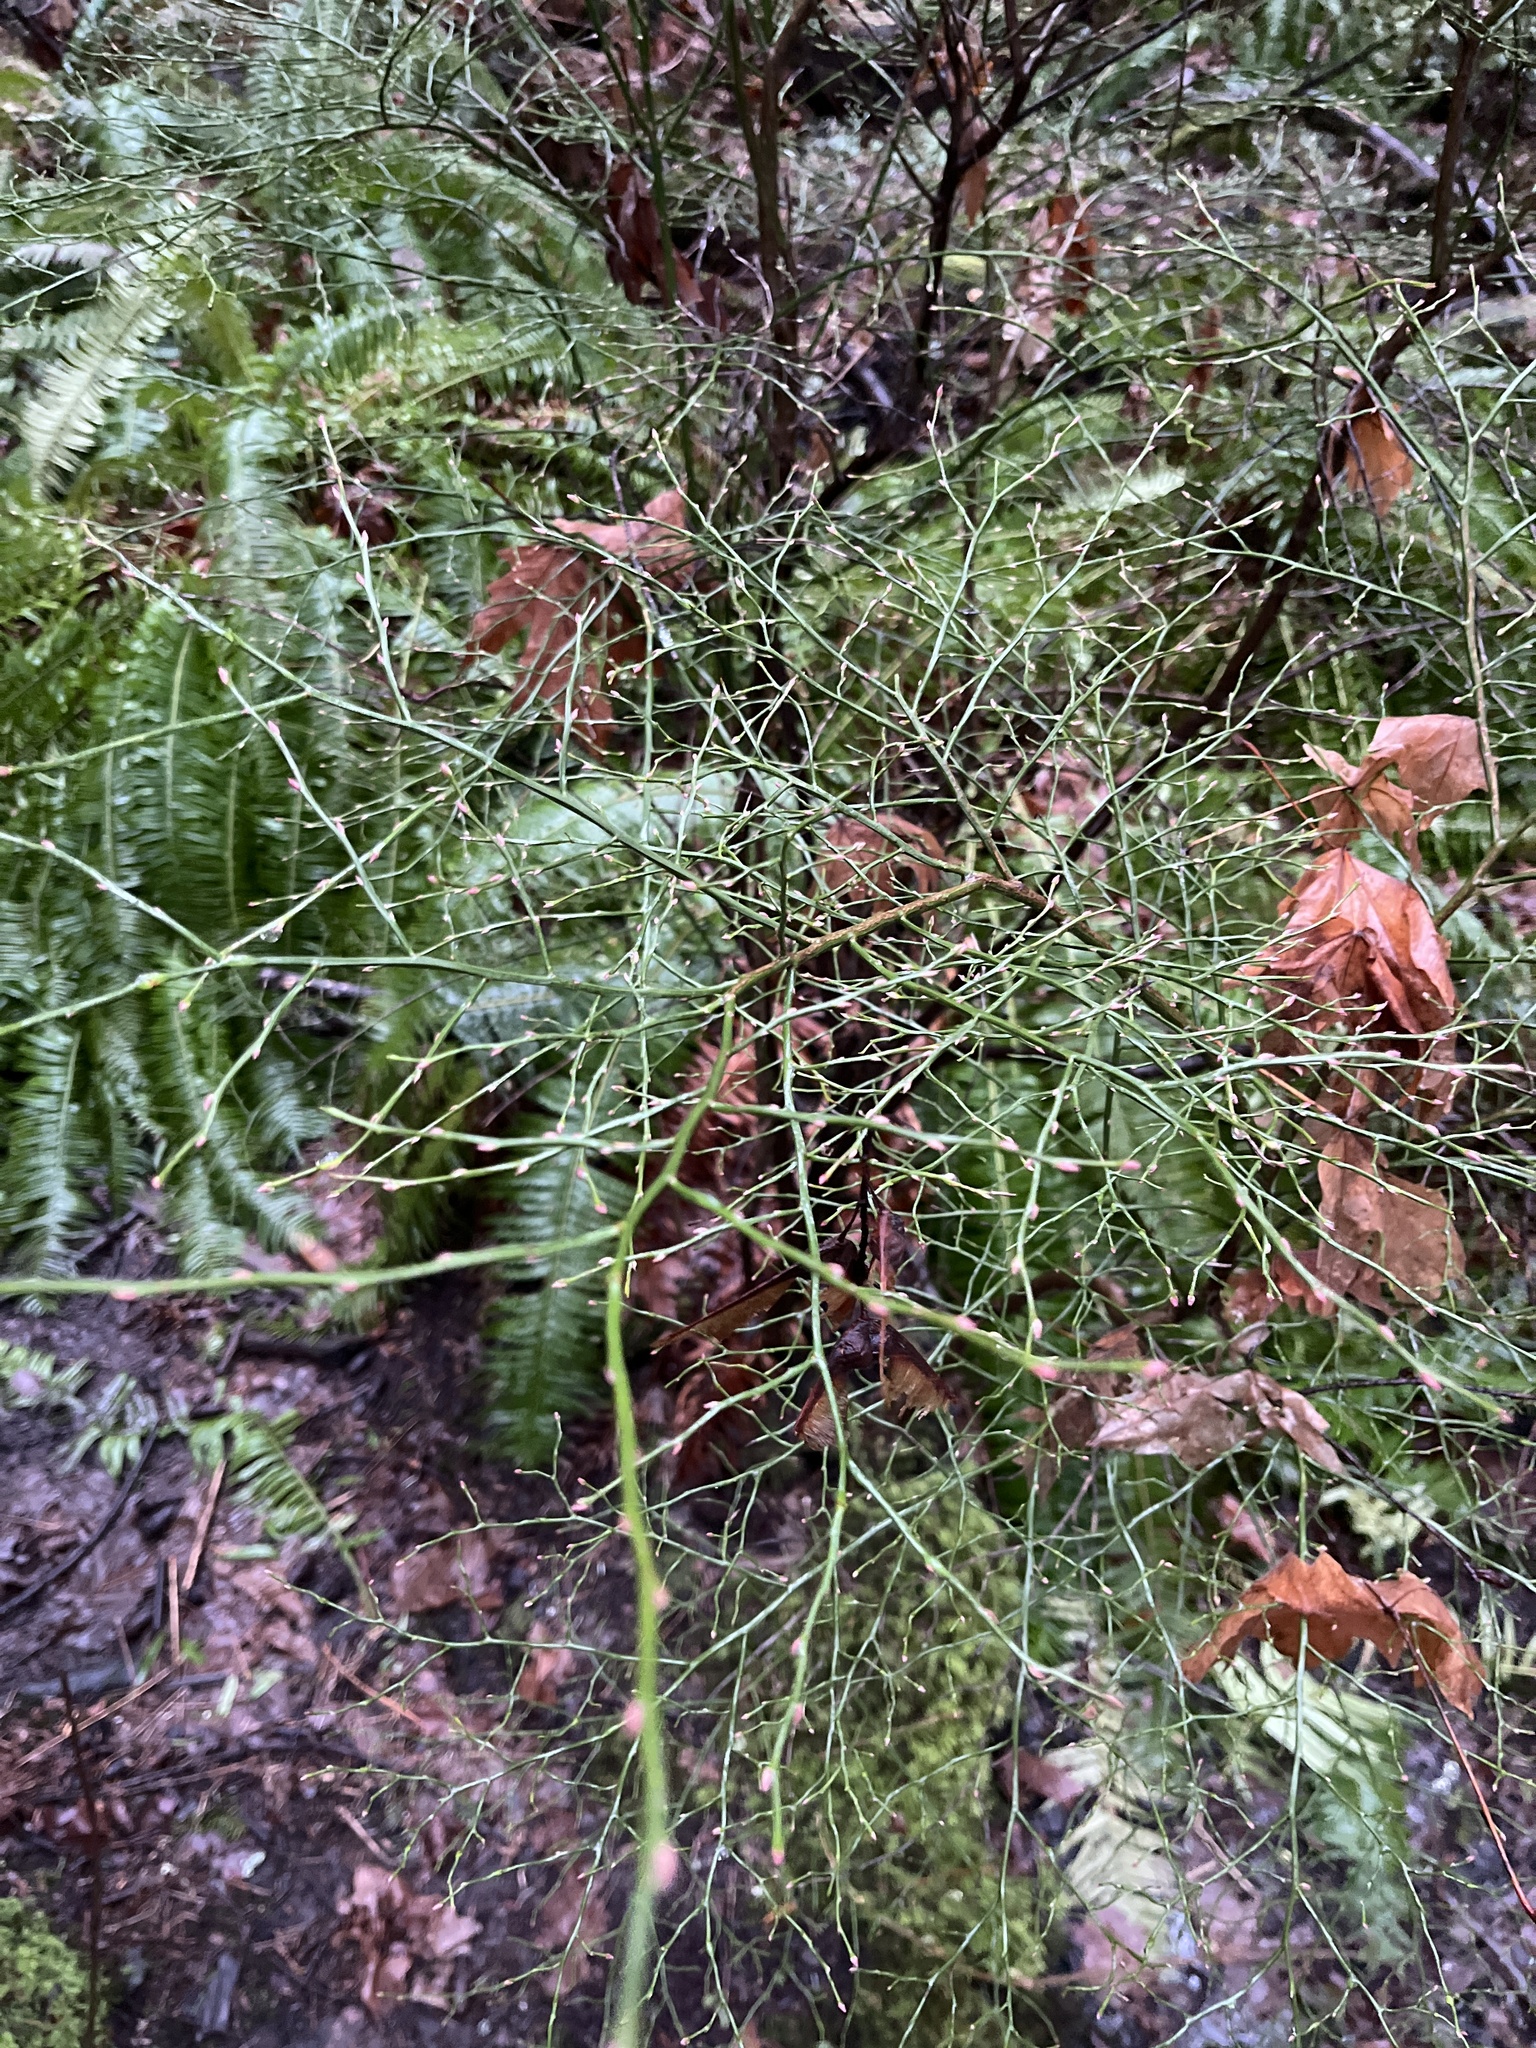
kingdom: Plantae
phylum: Tracheophyta
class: Magnoliopsida
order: Ericales
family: Ericaceae
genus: Vaccinium
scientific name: Vaccinium parvifolium
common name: Red-huckleberry
